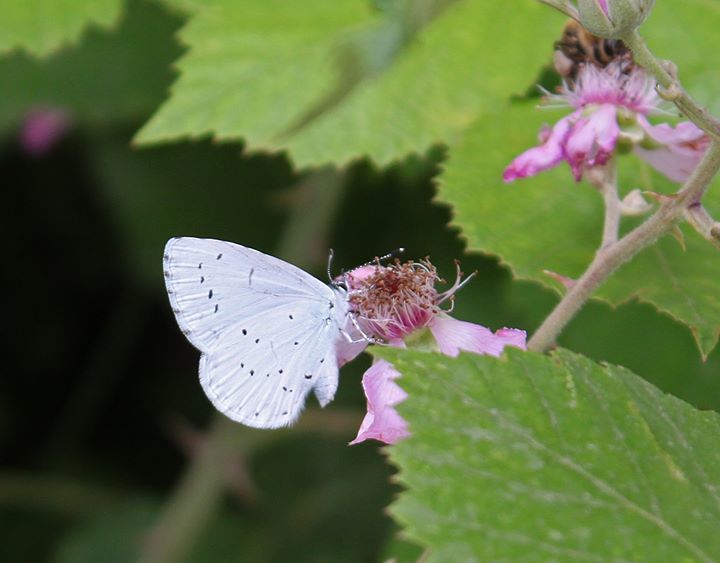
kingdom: Animalia
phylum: Arthropoda
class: Insecta
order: Lepidoptera
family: Lycaenidae
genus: Celastrina
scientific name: Celastrina argiolus
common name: Holly blue
